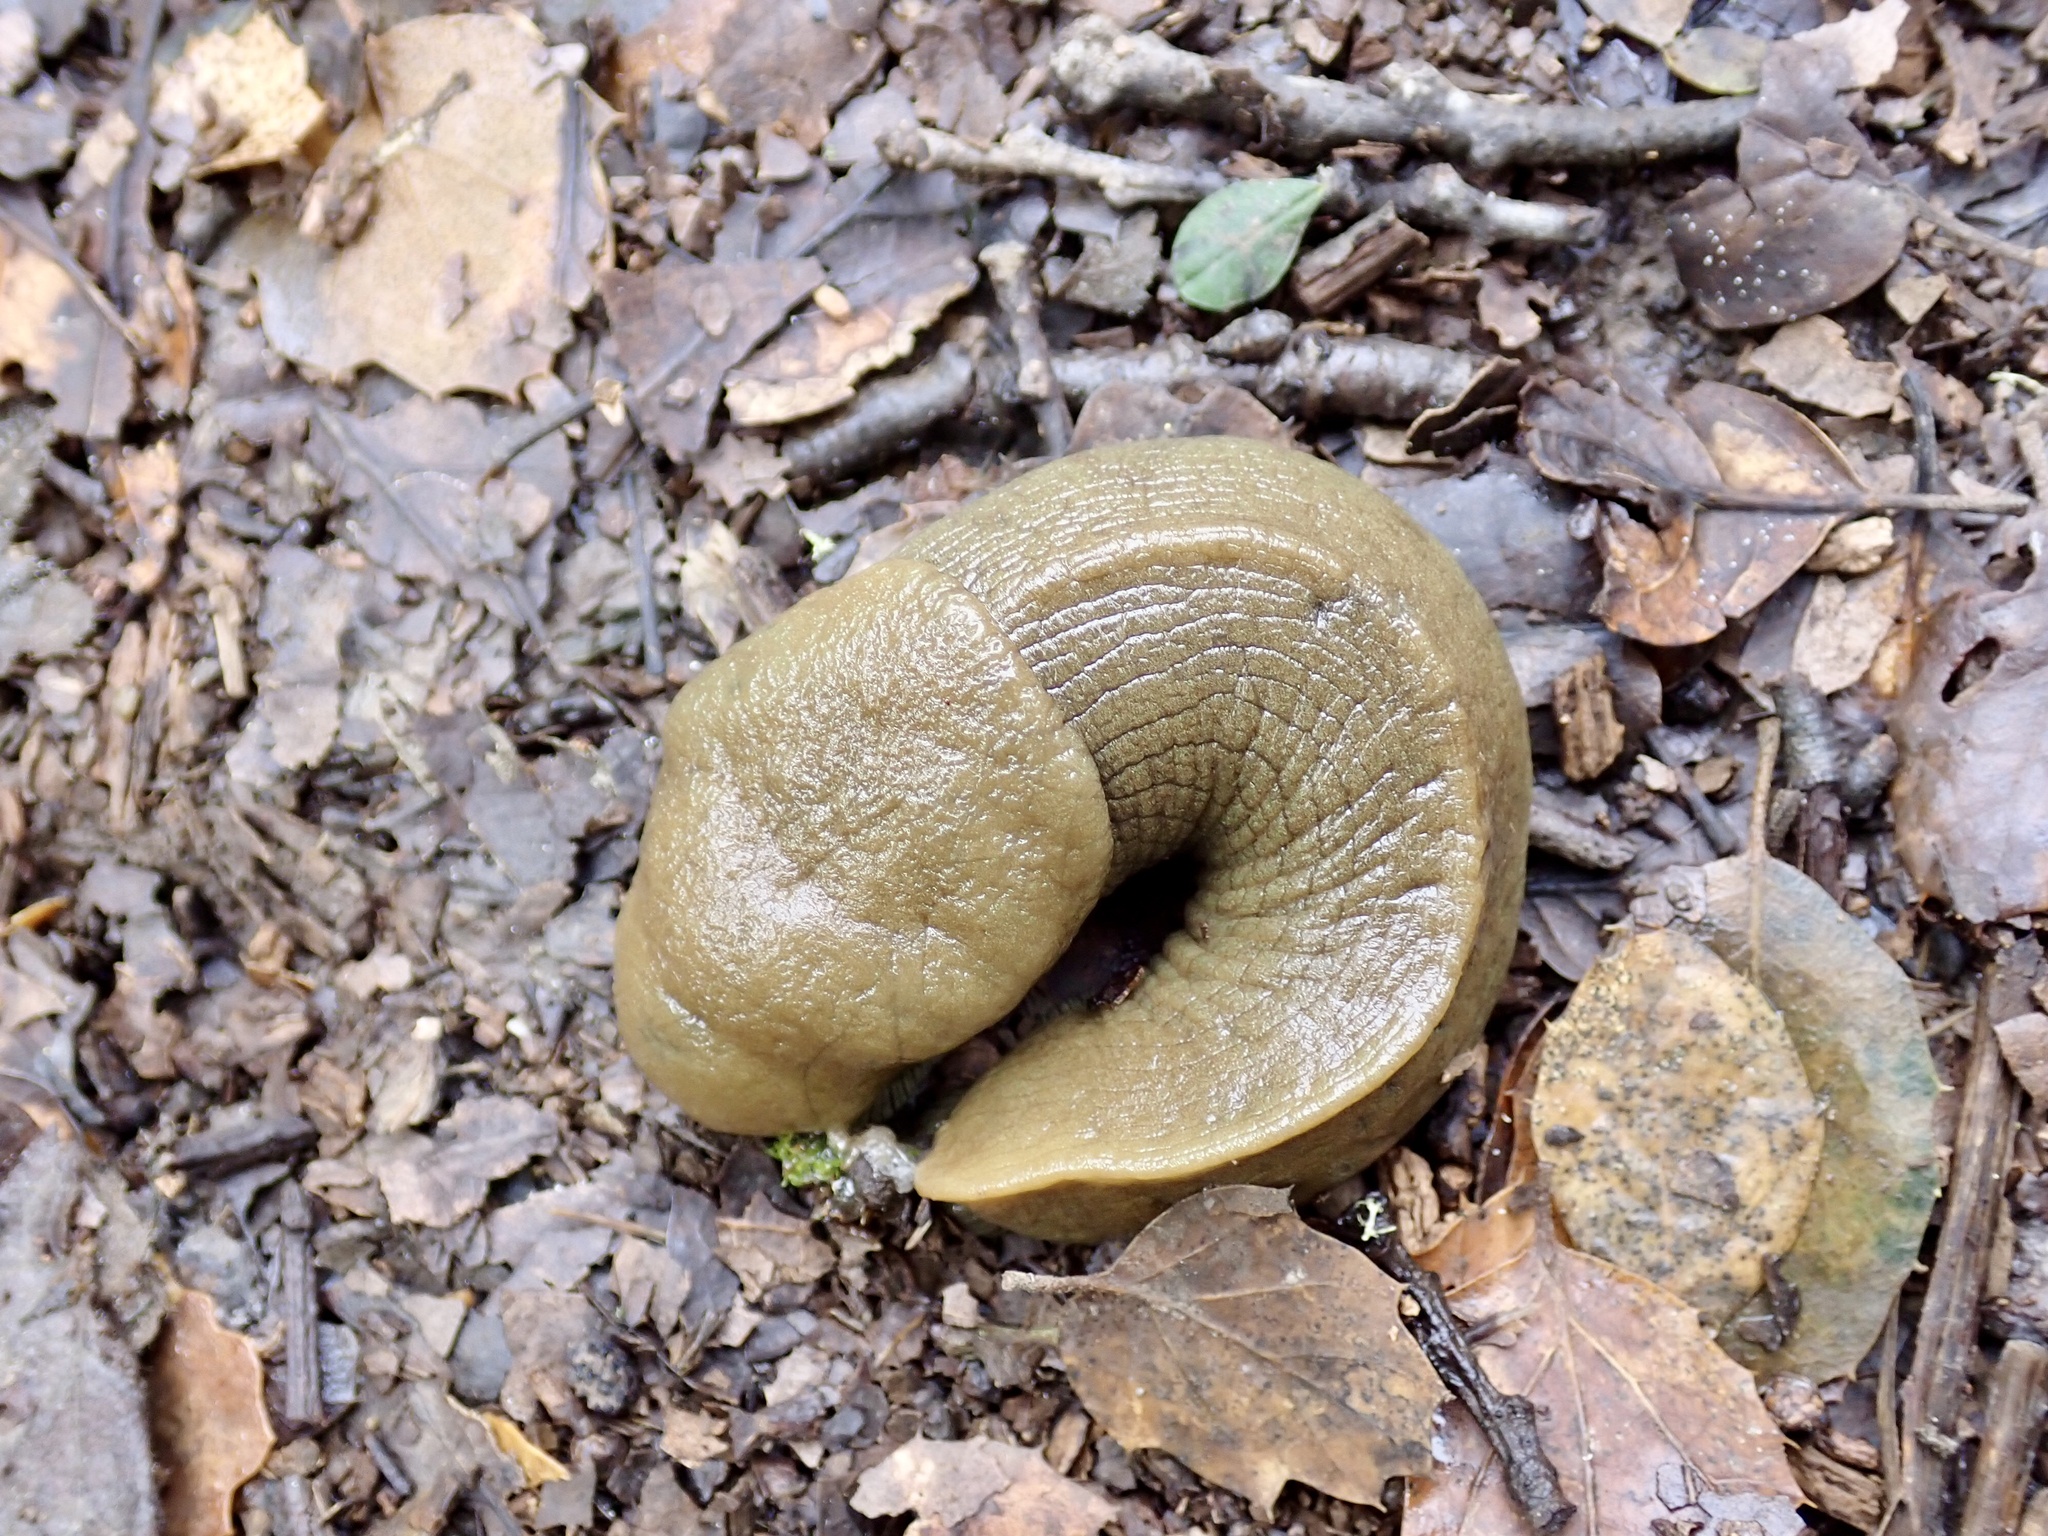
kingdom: Animalia
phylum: Mollusca
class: Gastropoda
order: Stylommatophora
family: Ariolimacidae
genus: Ariolimax
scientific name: Ariolimax buttoni
